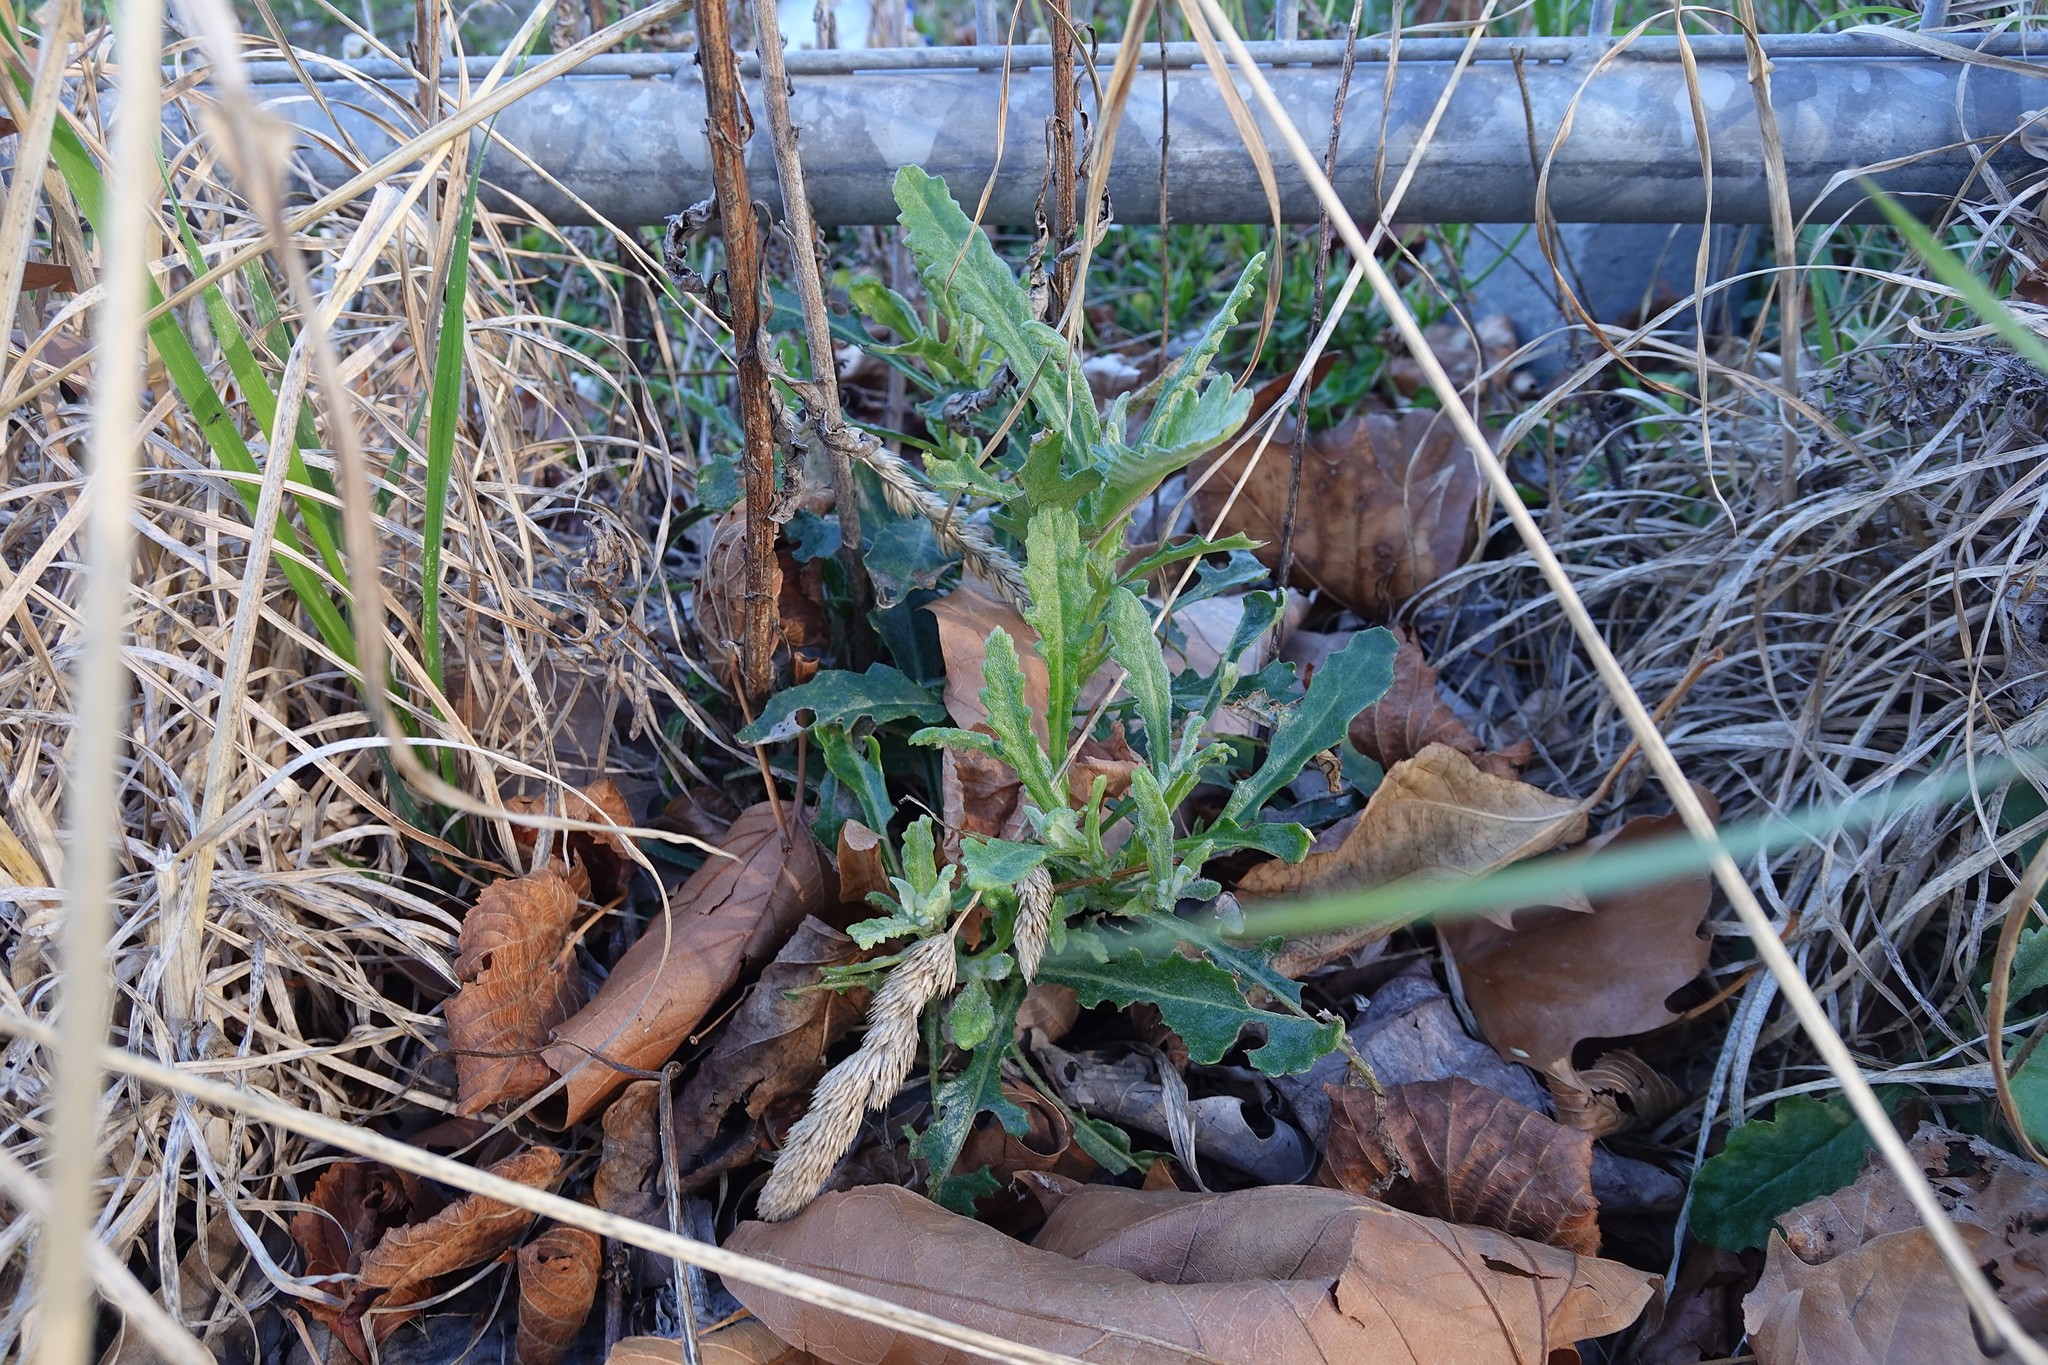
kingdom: Plantae
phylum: Tracheophyta
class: Liliopsida
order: Poales
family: Poaceae
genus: Dactylis
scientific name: Dactylis glomerata
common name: Orchardgrass
